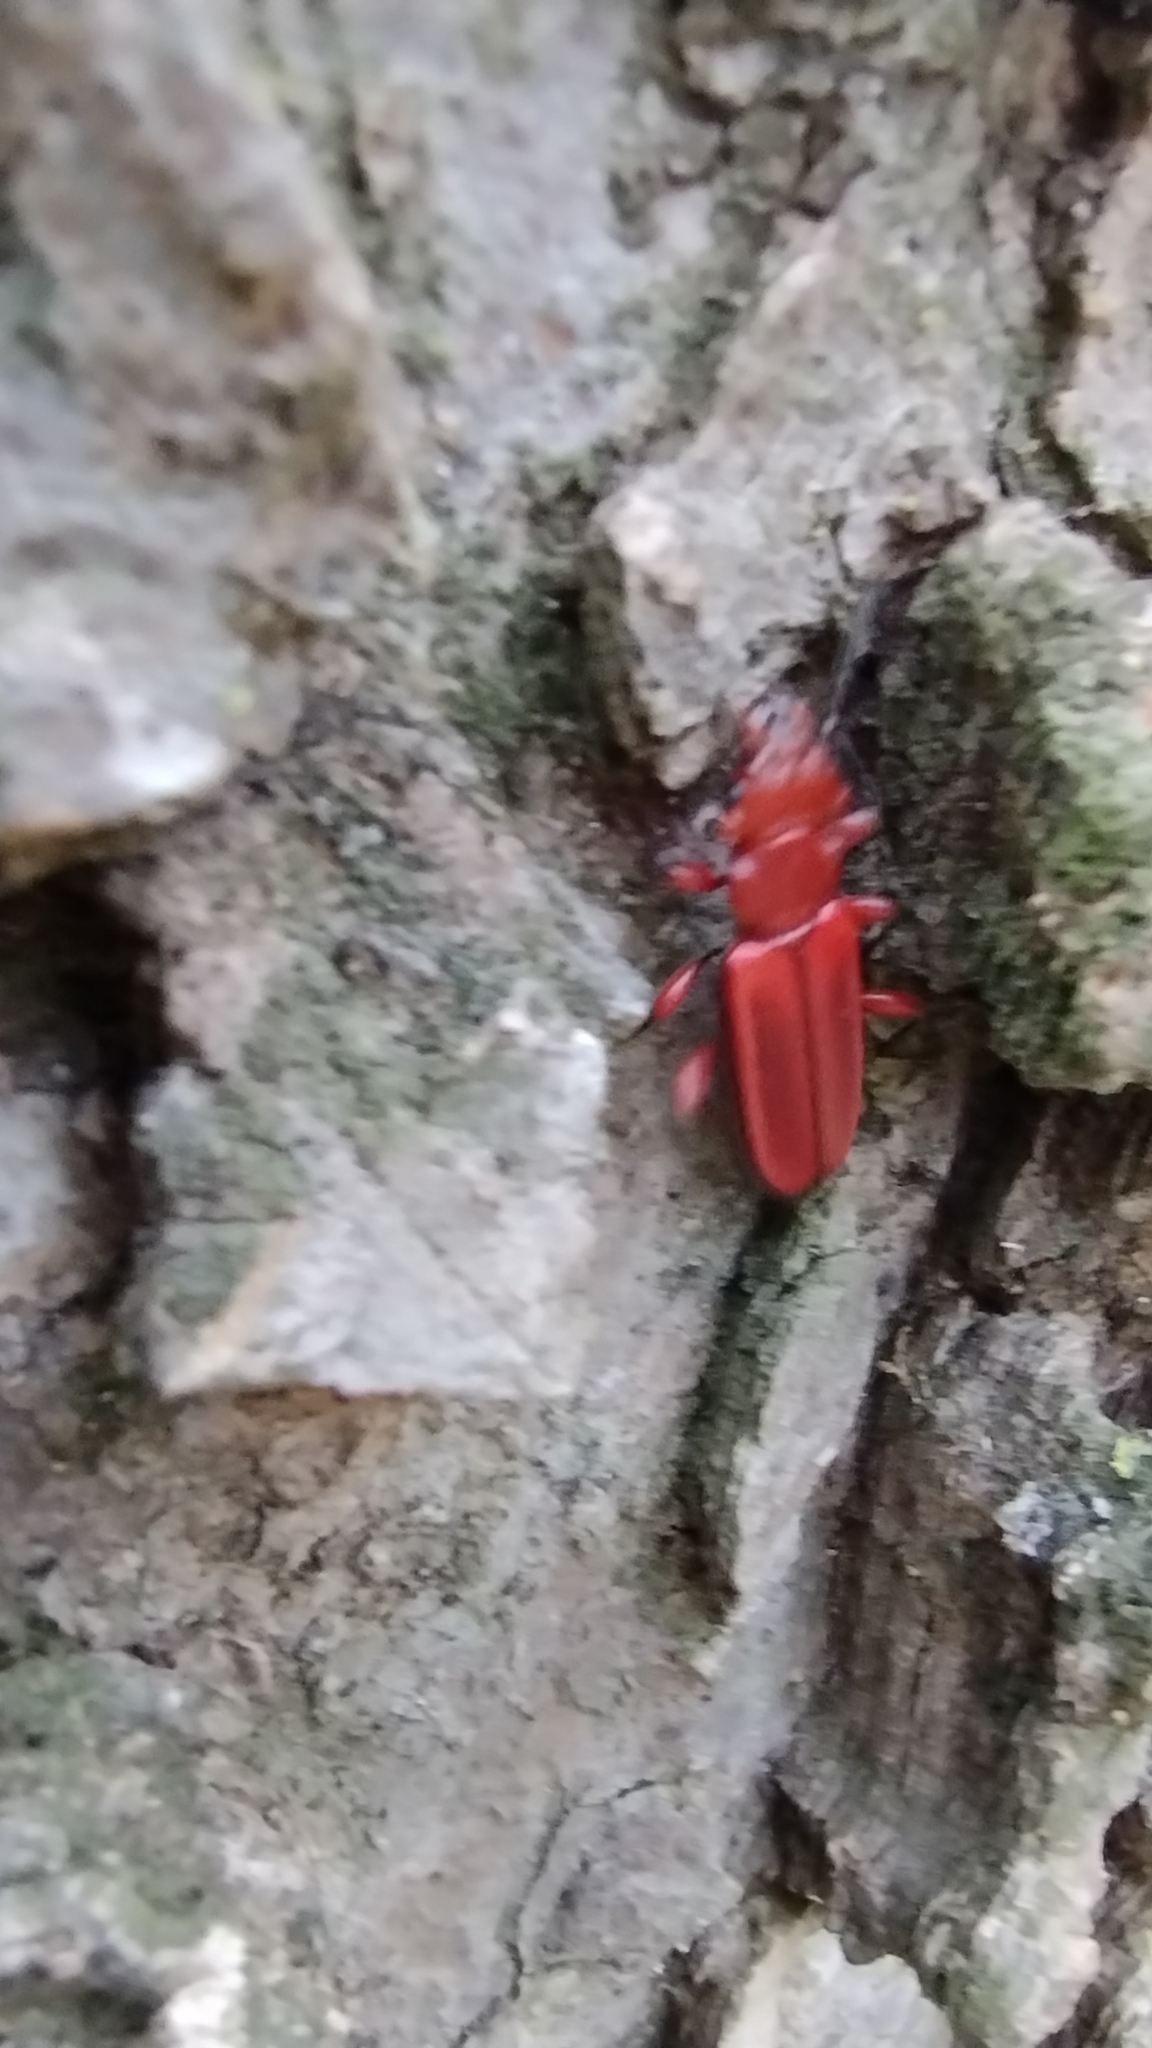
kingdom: Animalia
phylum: Arthropoda
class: Insecta
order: Coleoptera
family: Cucujidae
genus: Cucujus
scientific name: Cucujus clavipes
